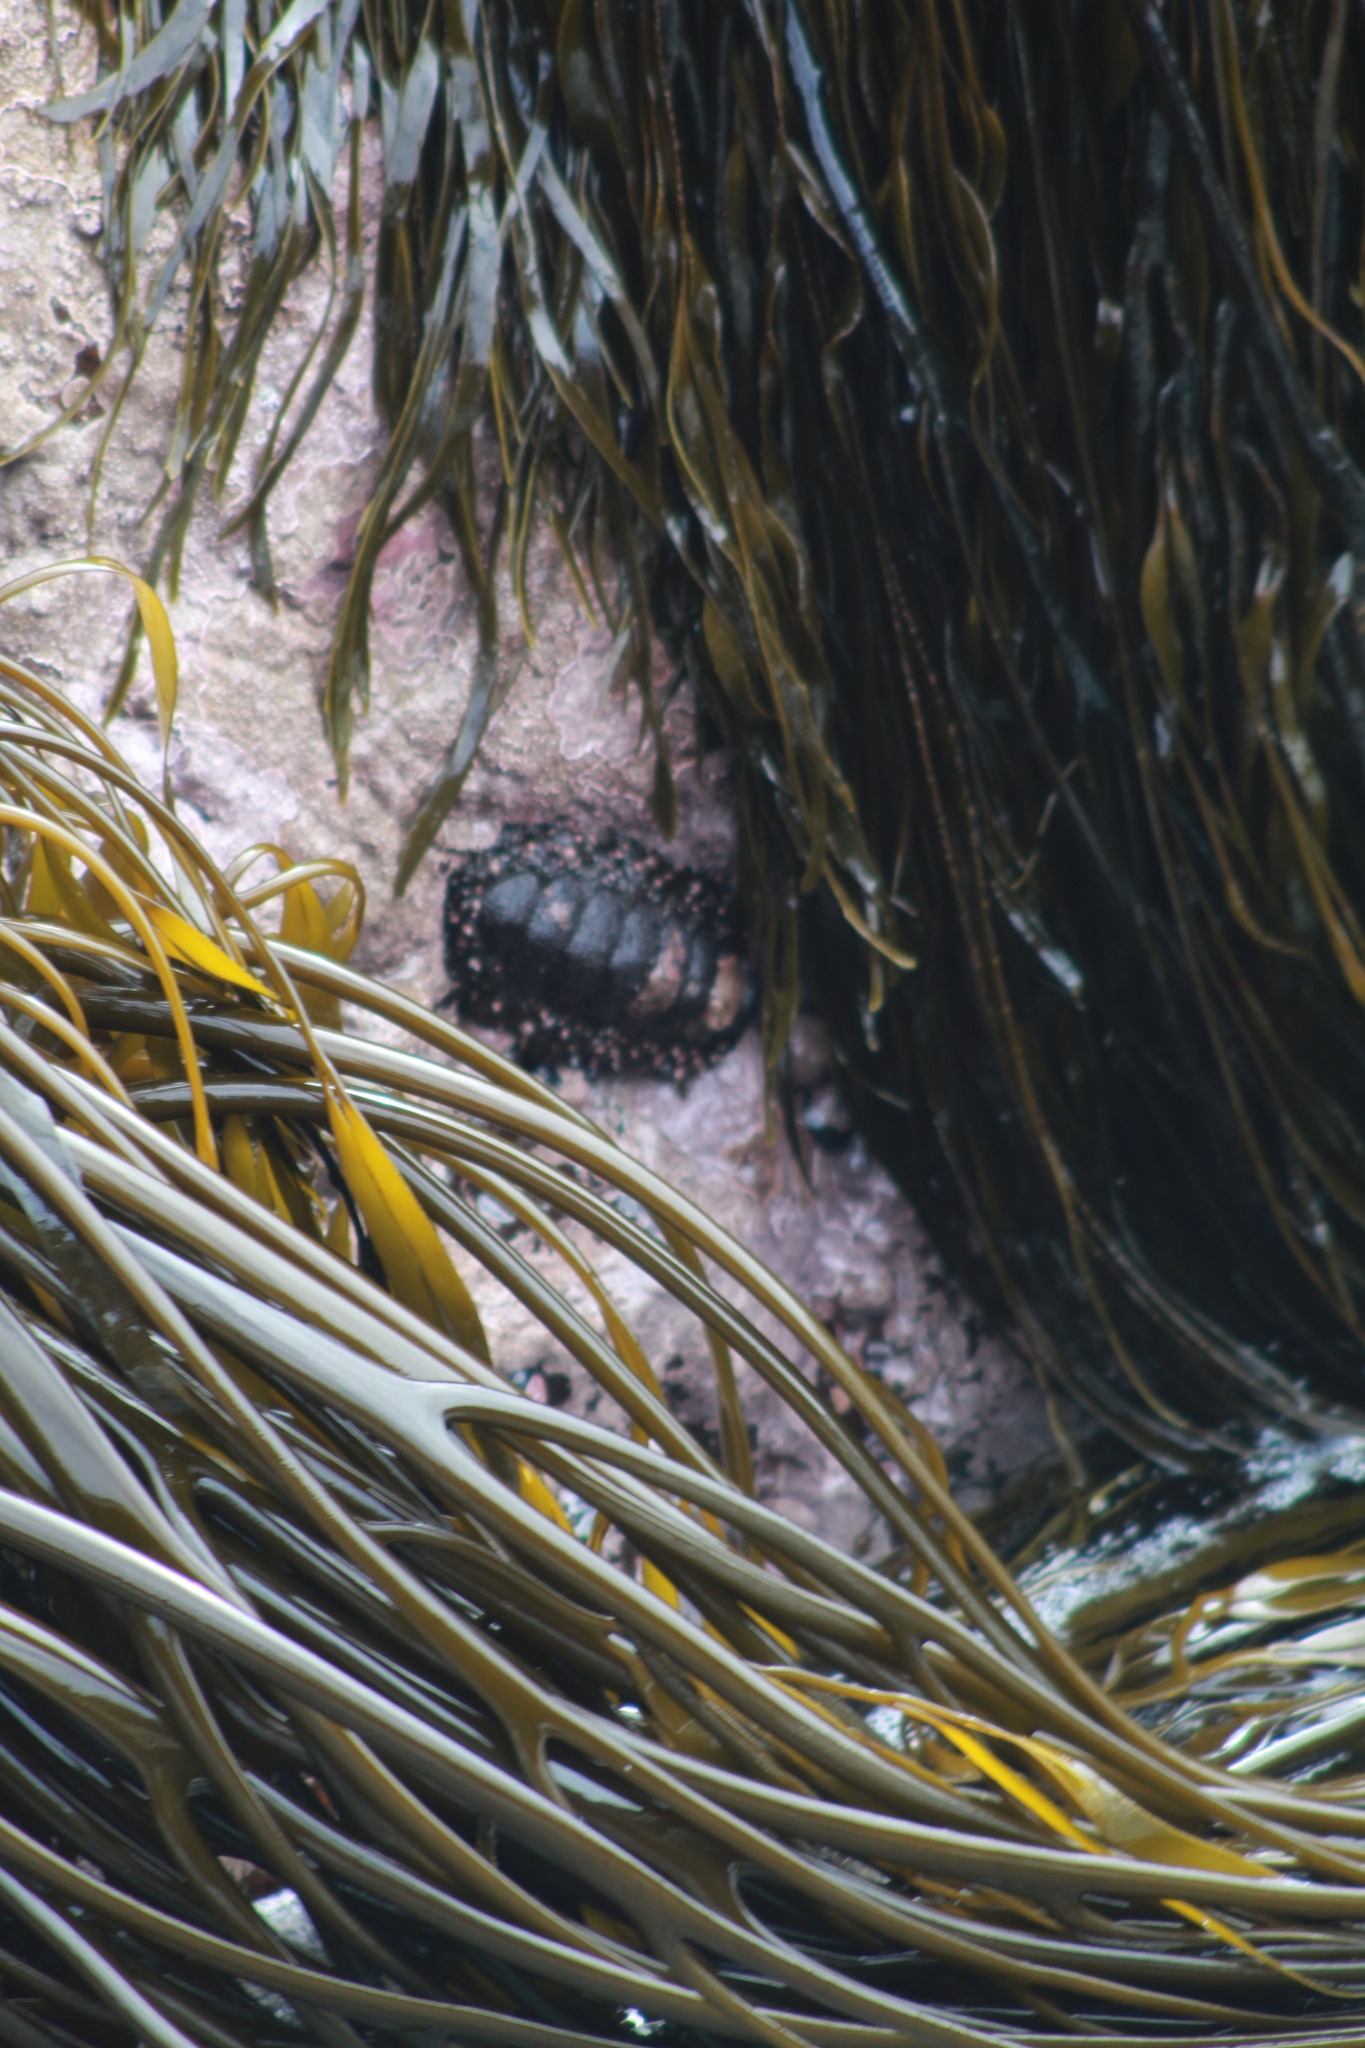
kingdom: Animalia
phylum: Mollusca
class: Polyplacophora
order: Chitonida
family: Chitonidae
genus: Enoplochiton
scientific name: Enoplochiton echinatus
